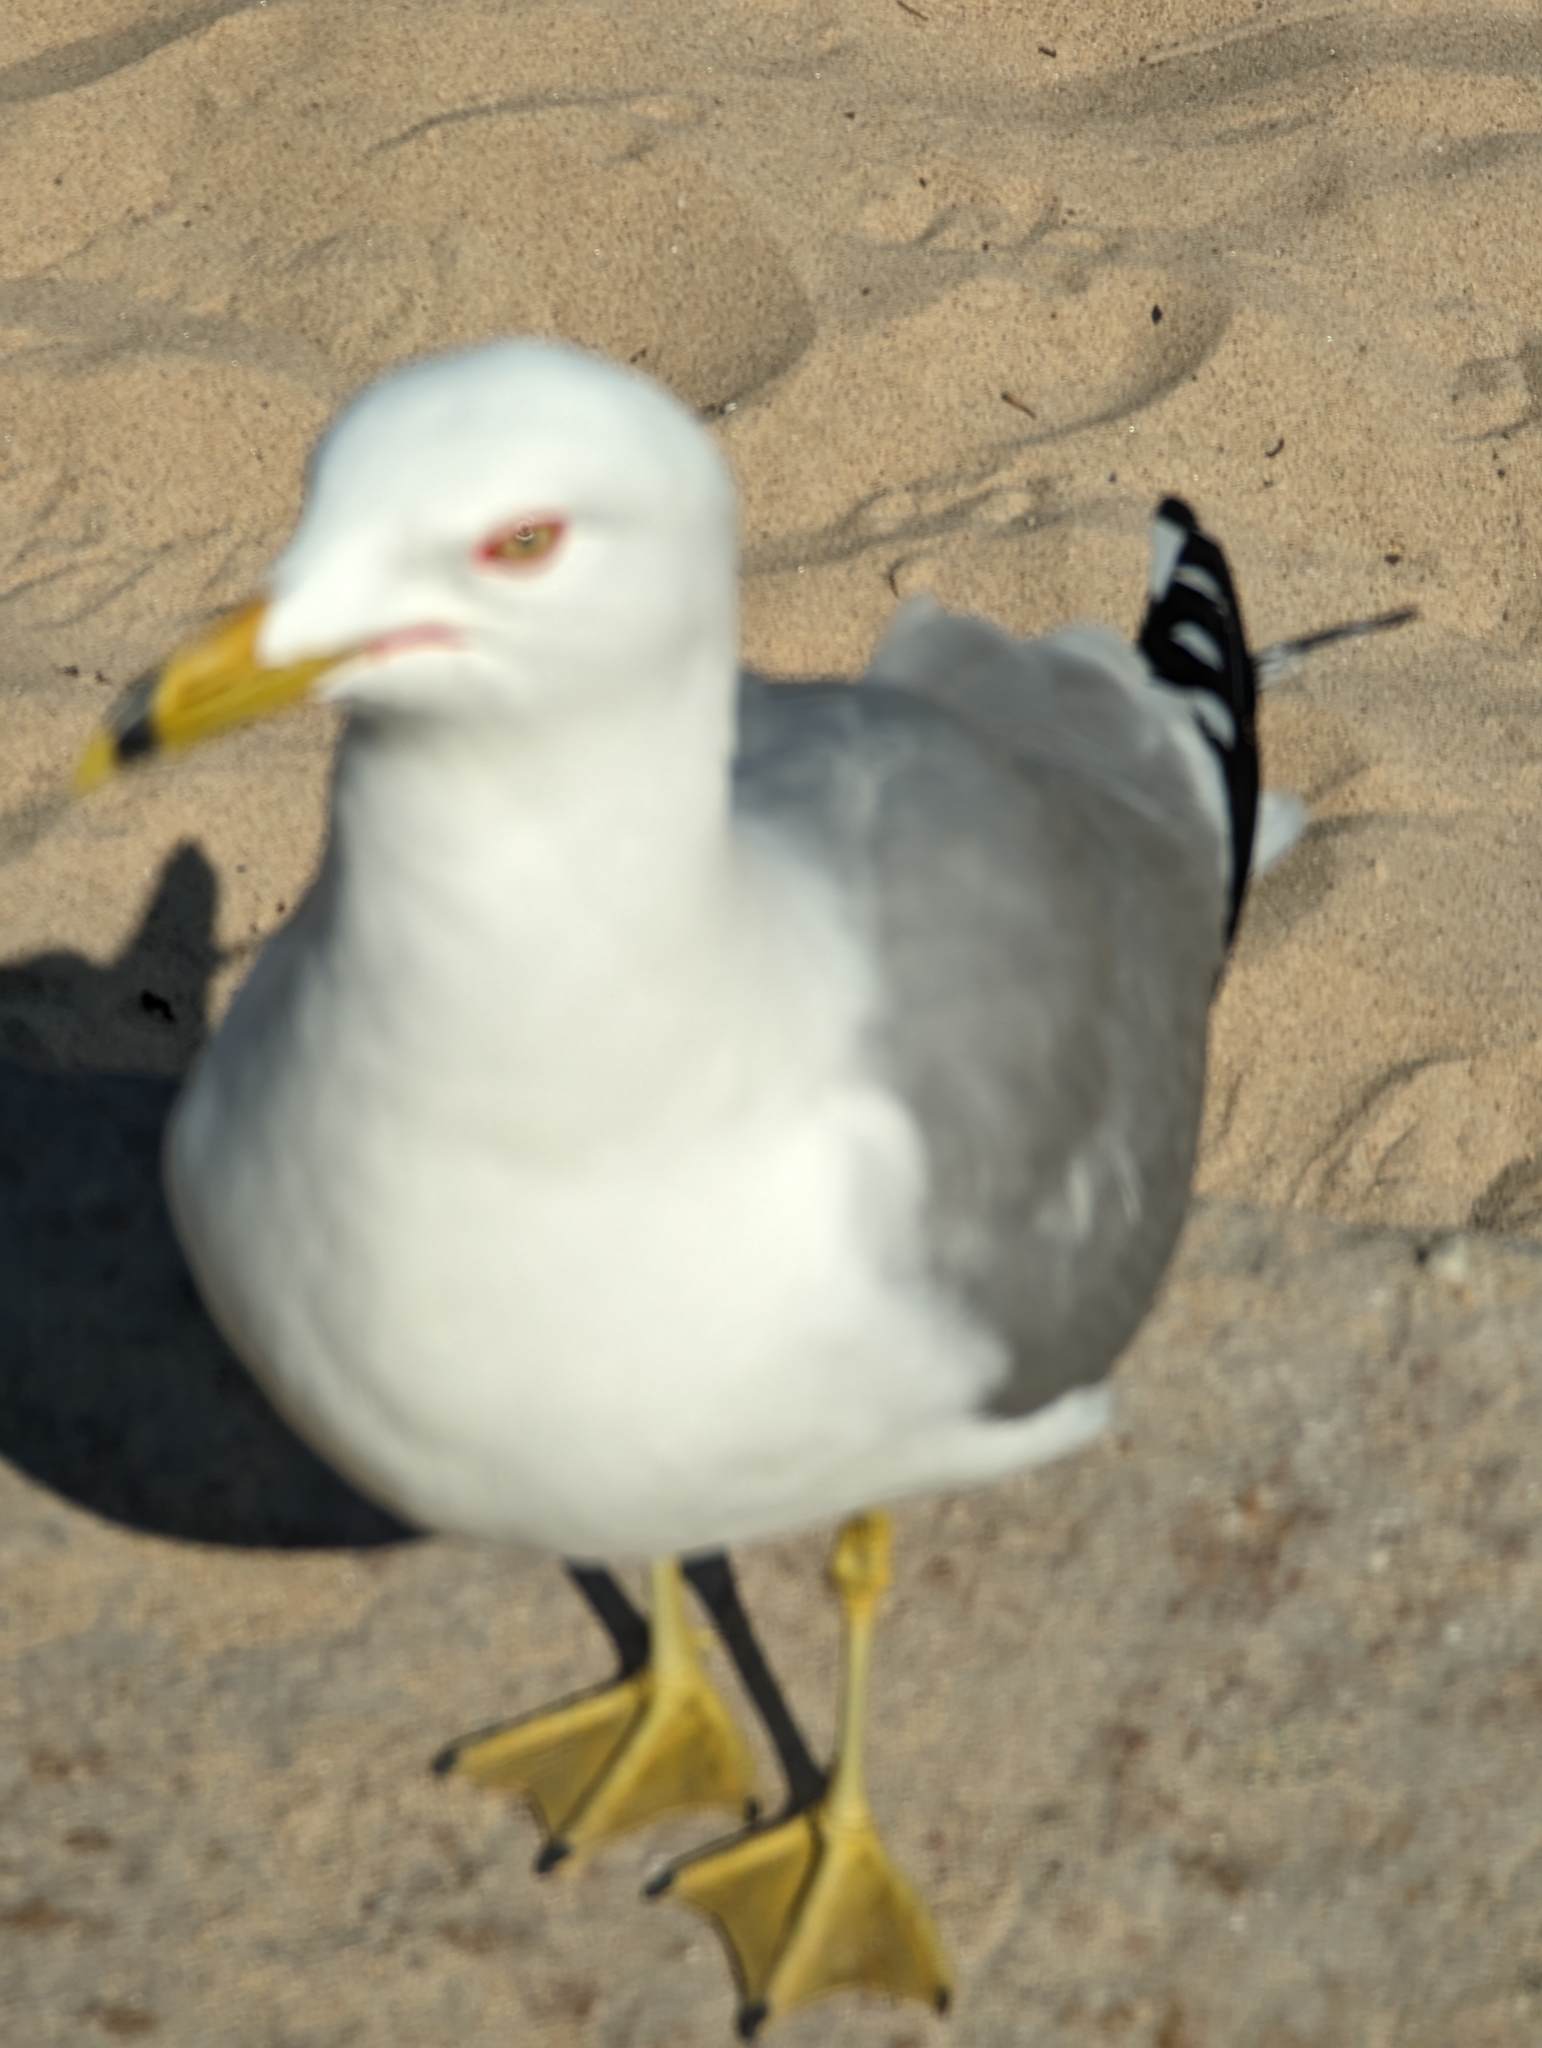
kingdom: Animalia
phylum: Chordata
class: Aves
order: Charadriiformes
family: Laridae
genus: Larus
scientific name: Larus delawarensis
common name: Ring-billed gull
